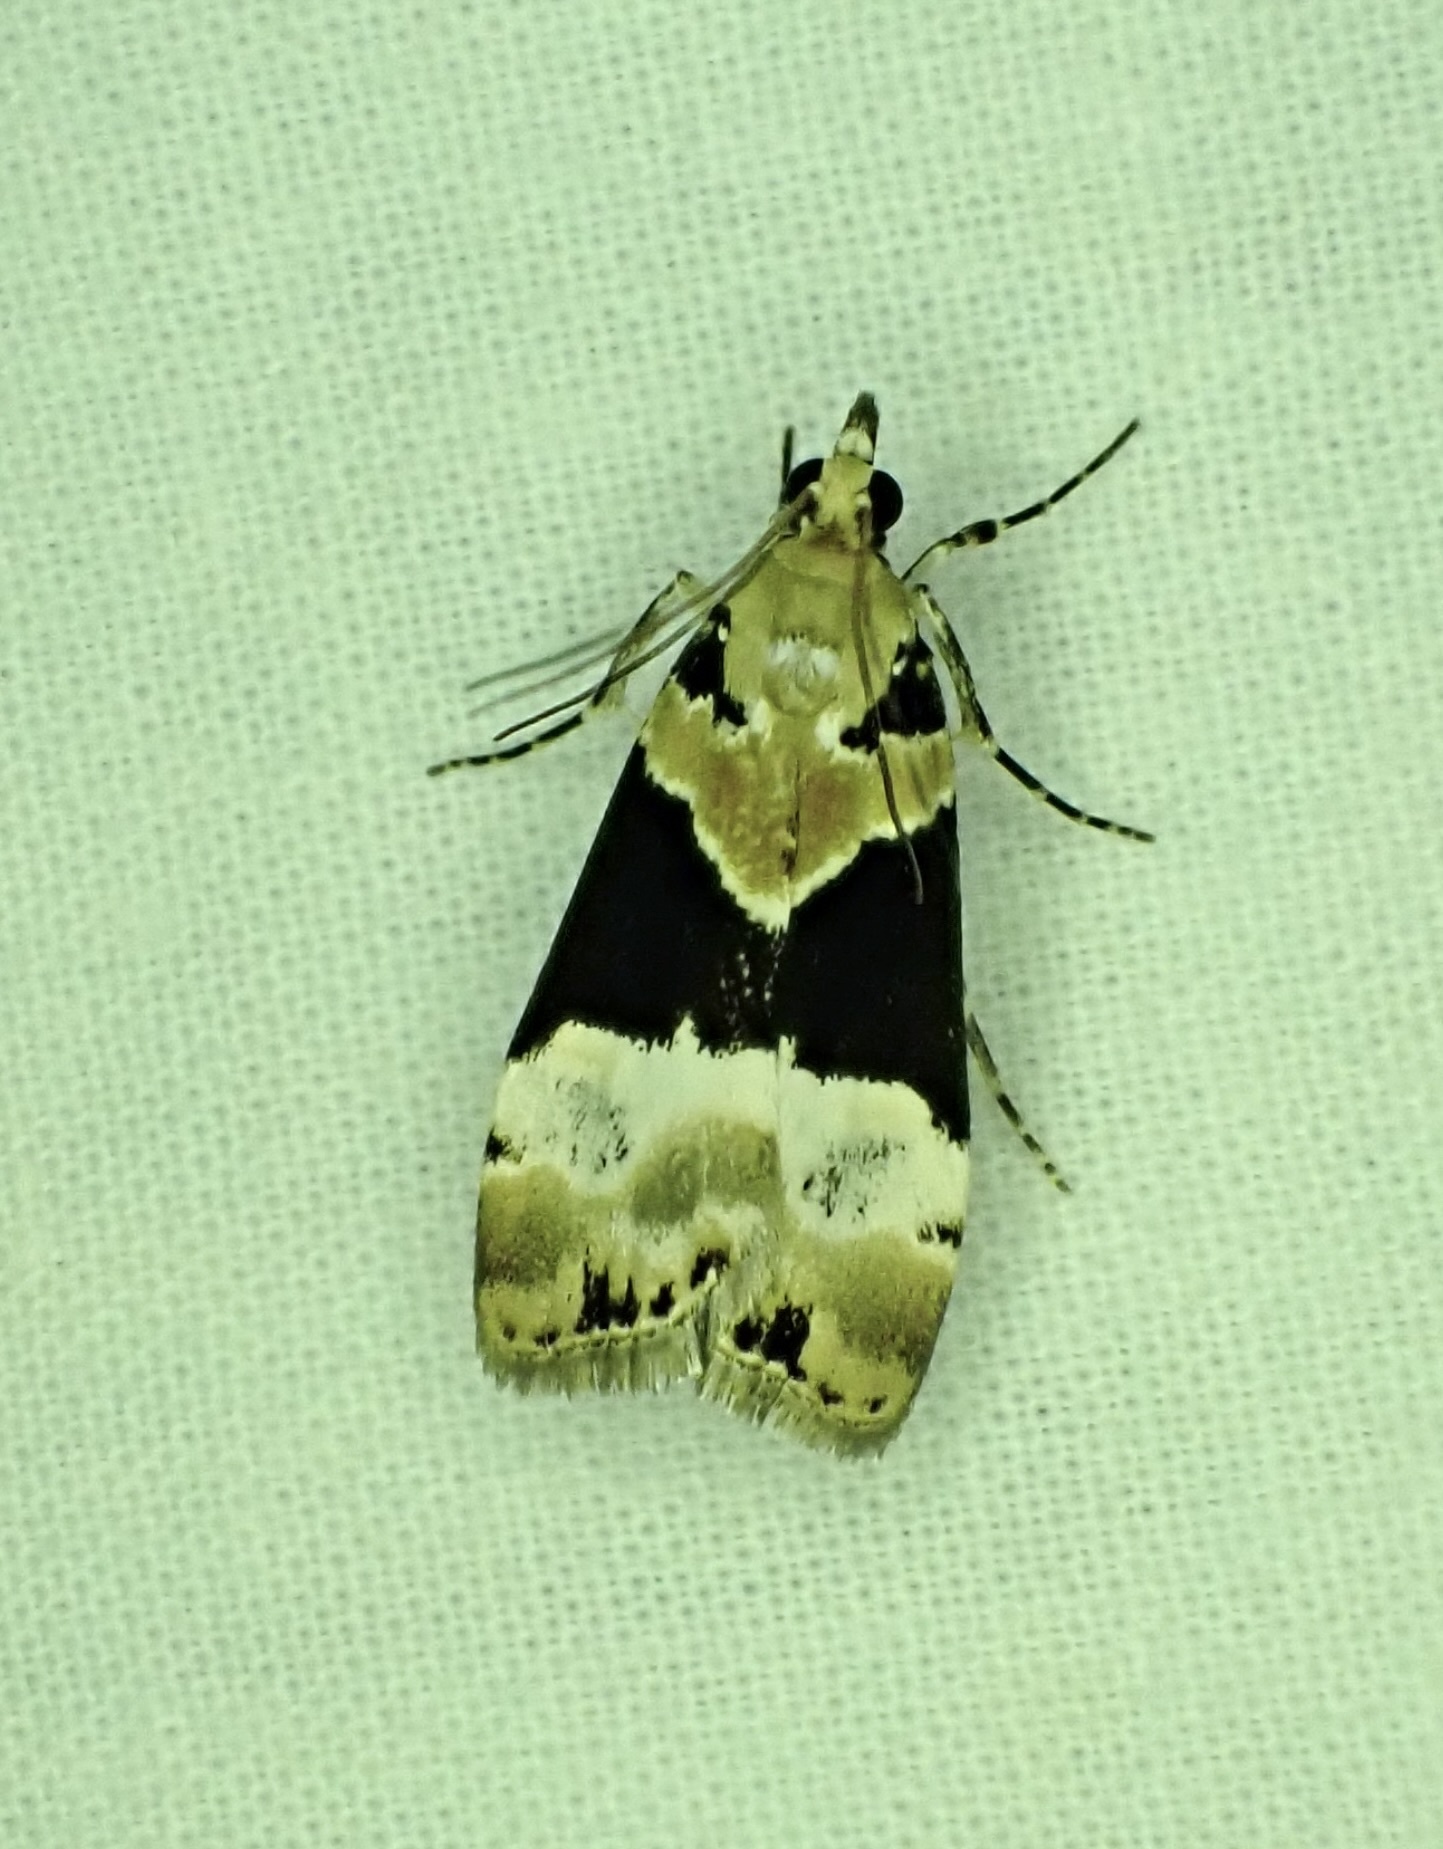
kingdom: Animalia
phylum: Arthropoda
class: Insecta
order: Lepidoptera
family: Crambidae
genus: Eudonia
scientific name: Eudonia aspidota
